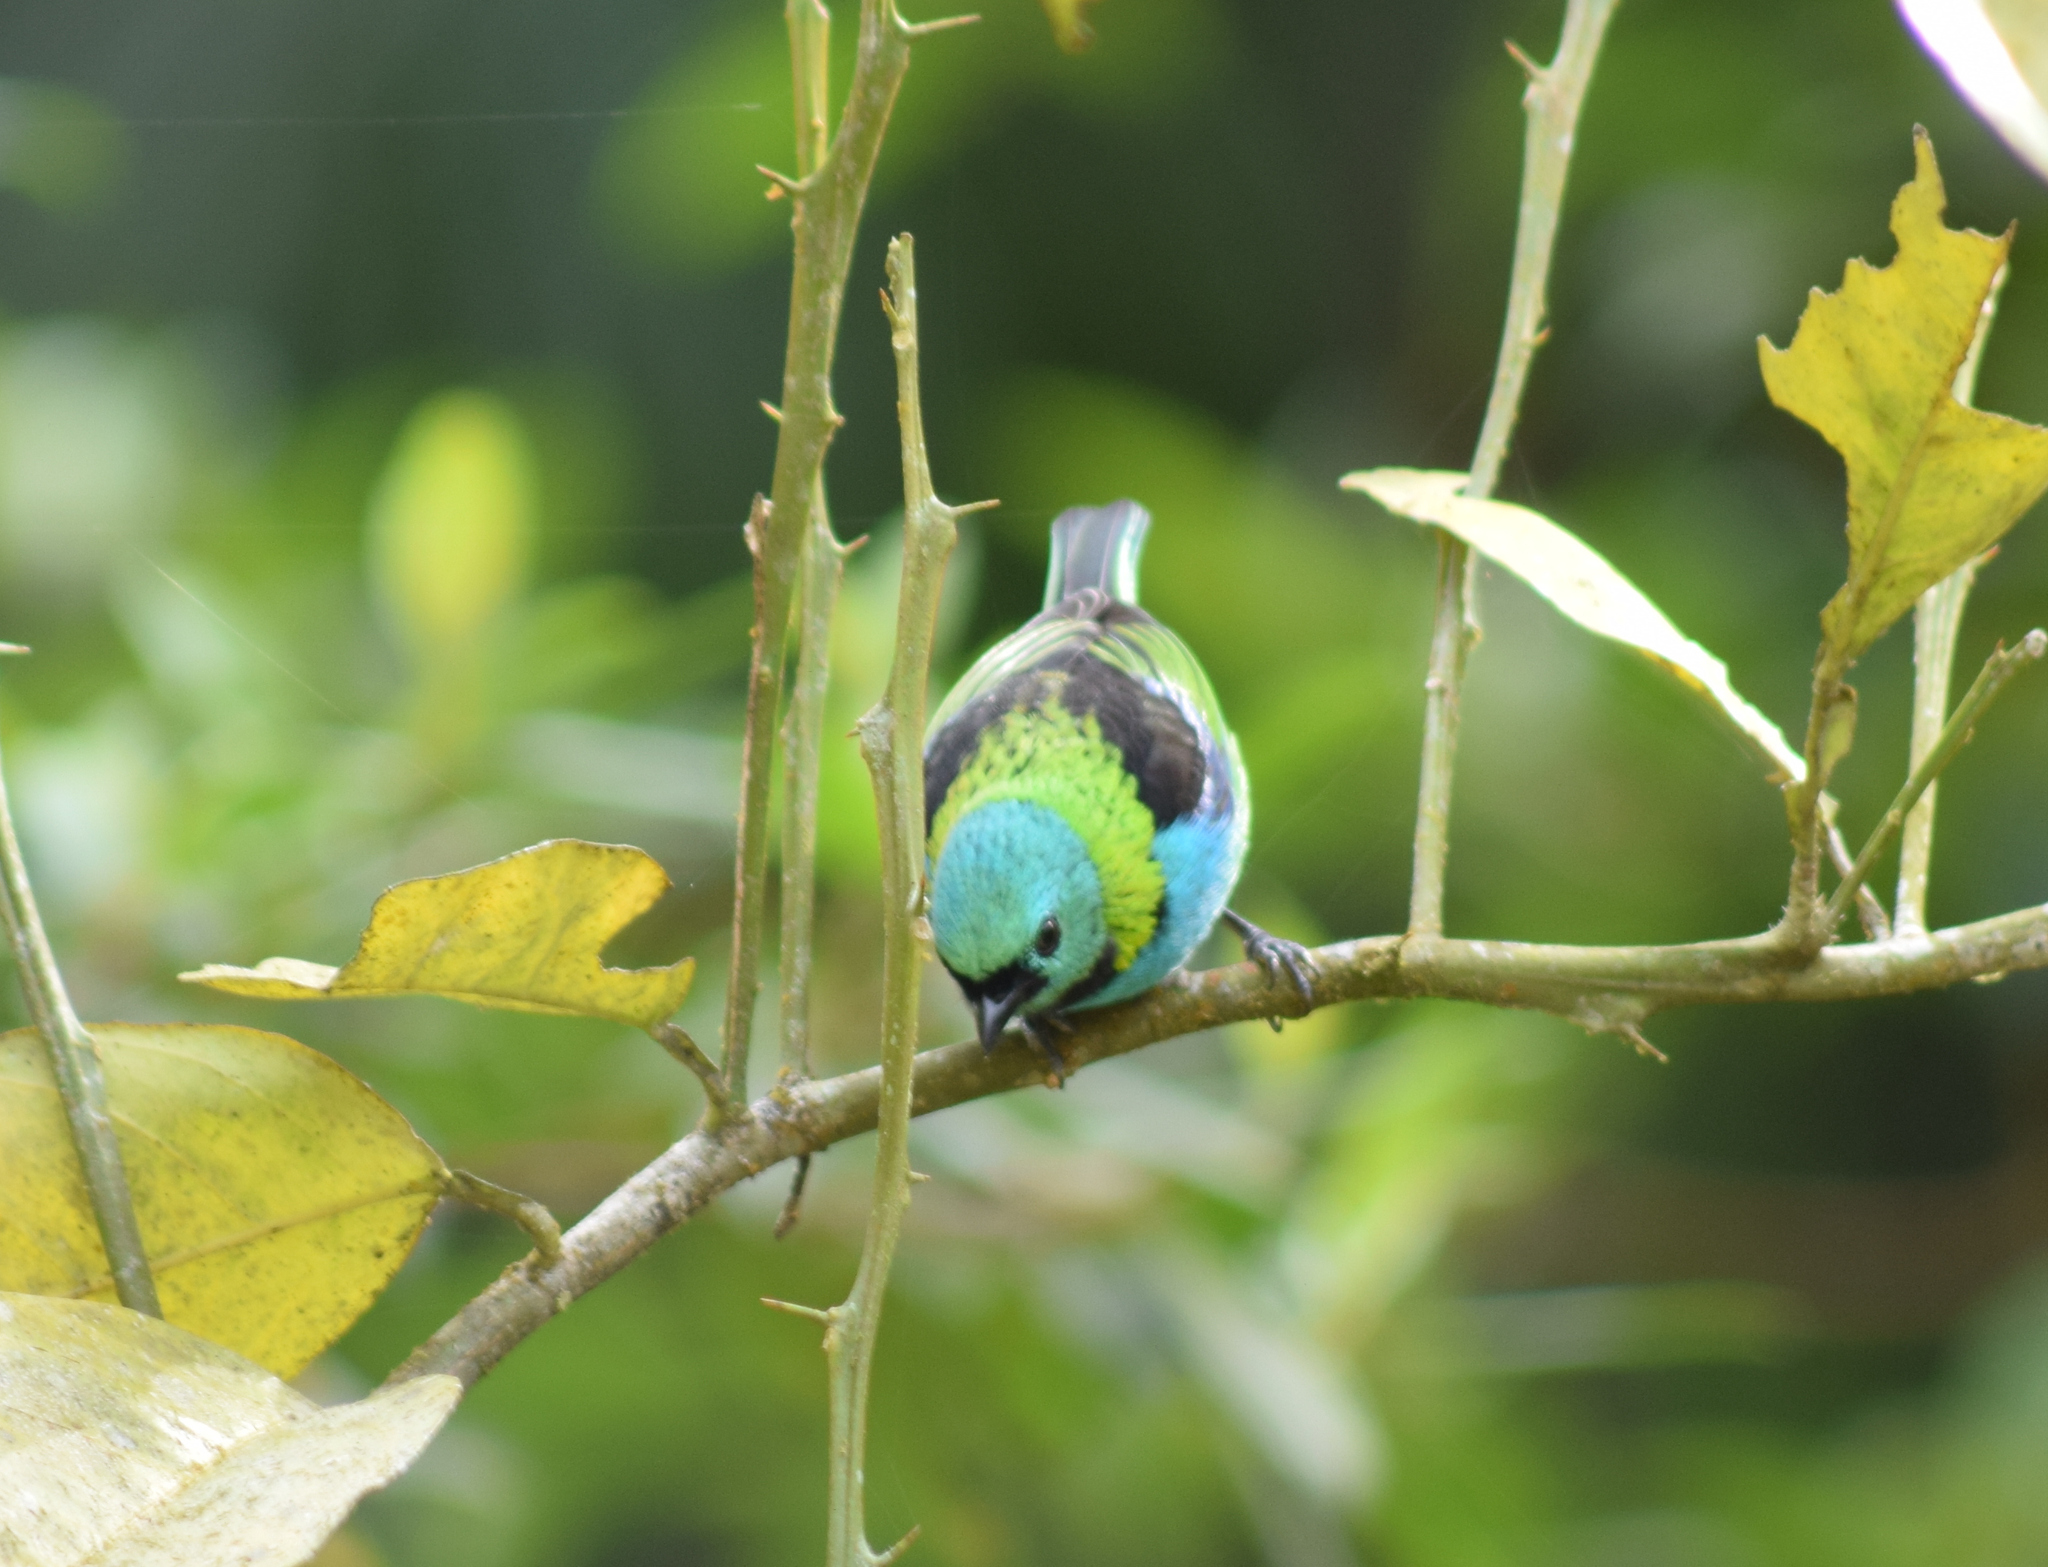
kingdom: Animalia
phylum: Chordata
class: Aves
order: Passeriformes
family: Thraupidae
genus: Tangara
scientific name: Tangara seledon
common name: Green-headed tanager
